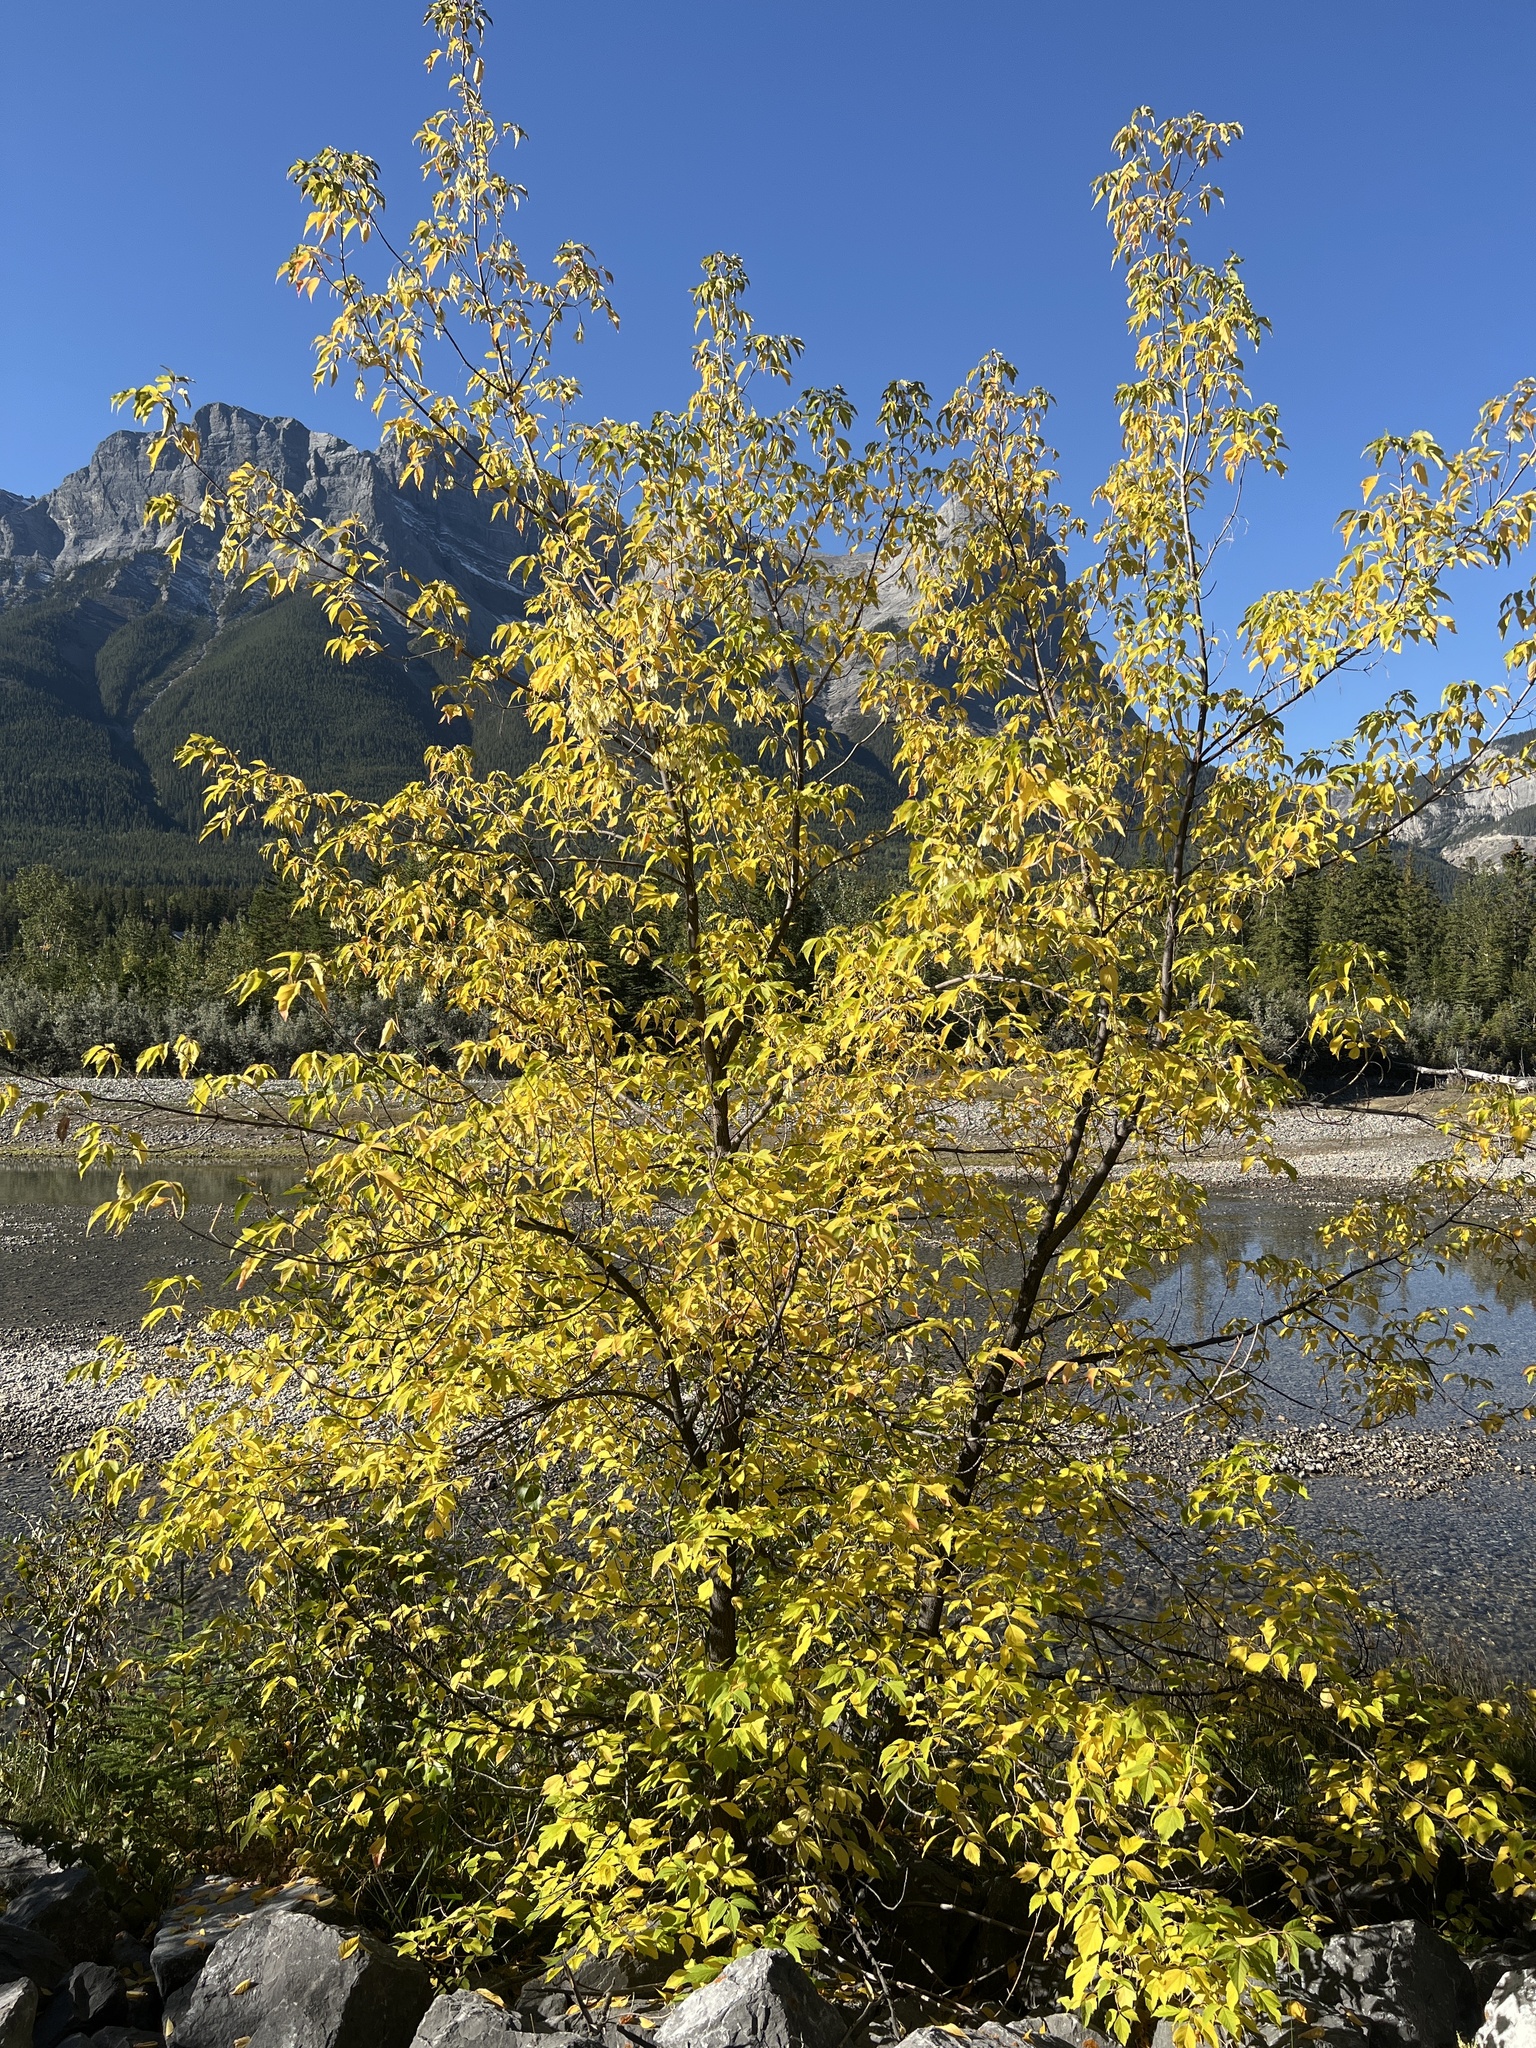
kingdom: Plantae
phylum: Tracheophyta
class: Magnoliopsida
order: Sapindales
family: Sapindaceae
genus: Acer
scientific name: Acer negundo
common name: Ashleaf maple
